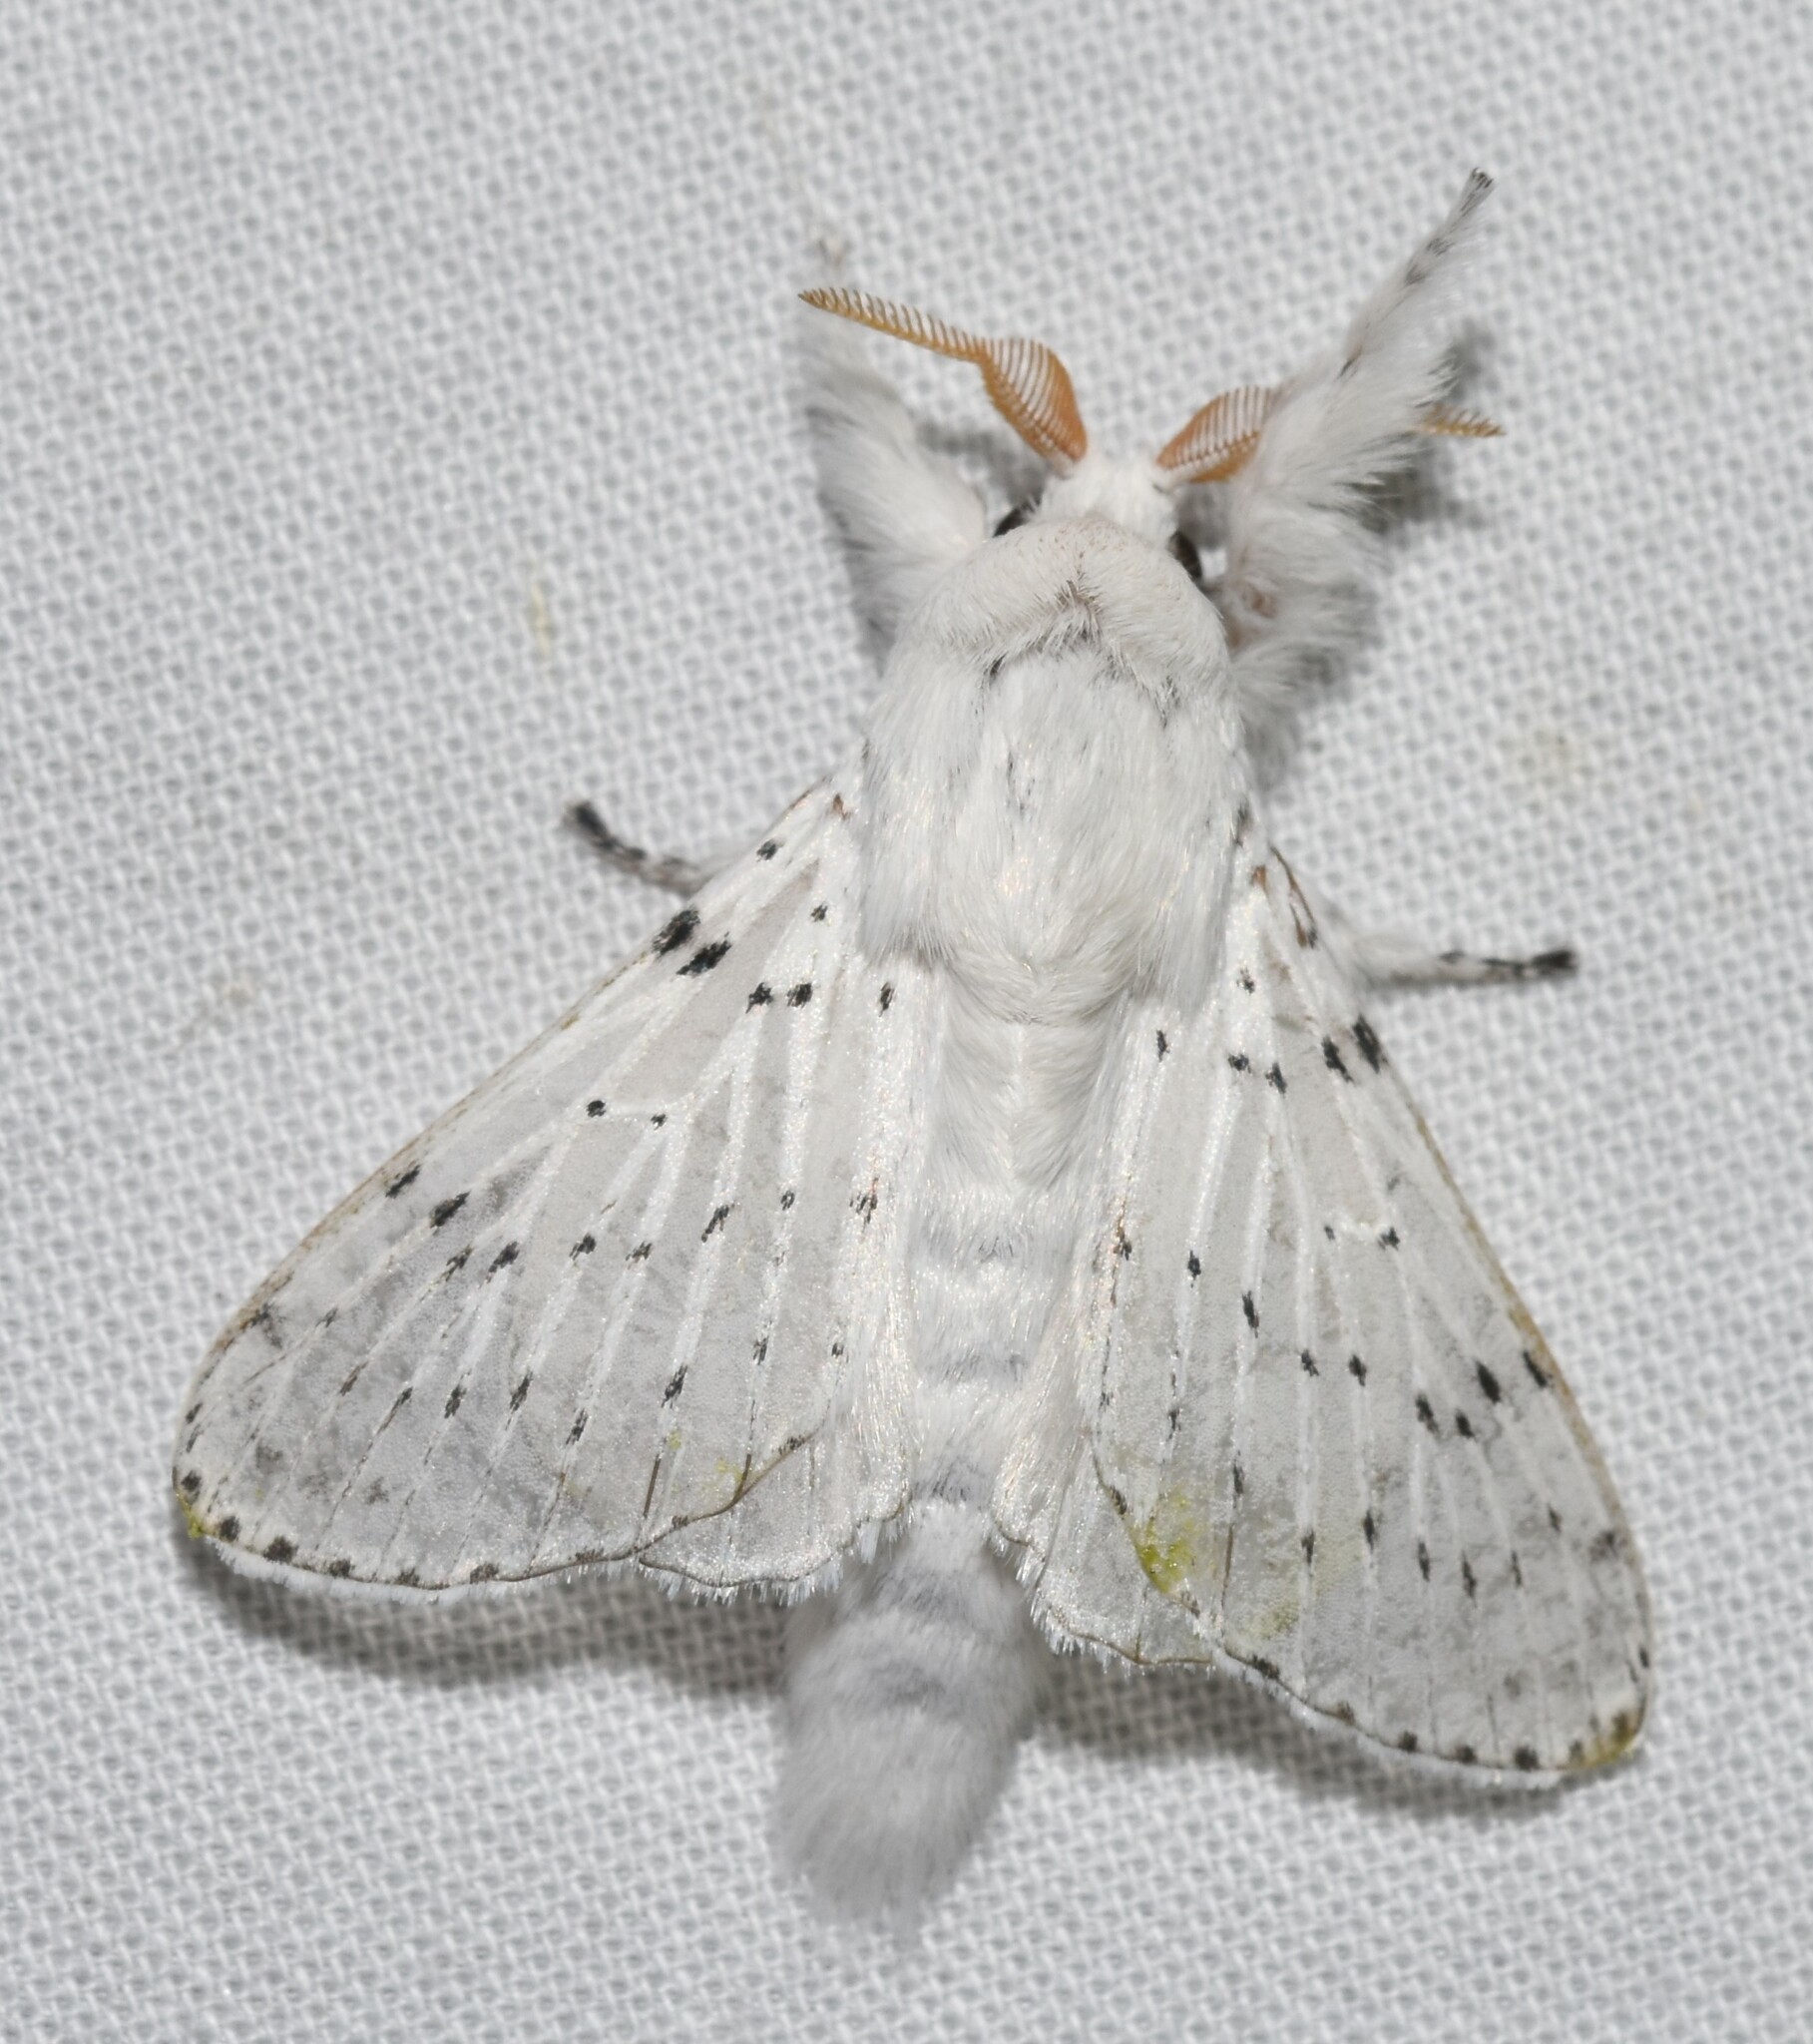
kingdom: Animalia
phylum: Arthropoda
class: Insecta
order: Lepidoptera
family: Lasiocampidae
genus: Artace
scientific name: Artace cribrarius
